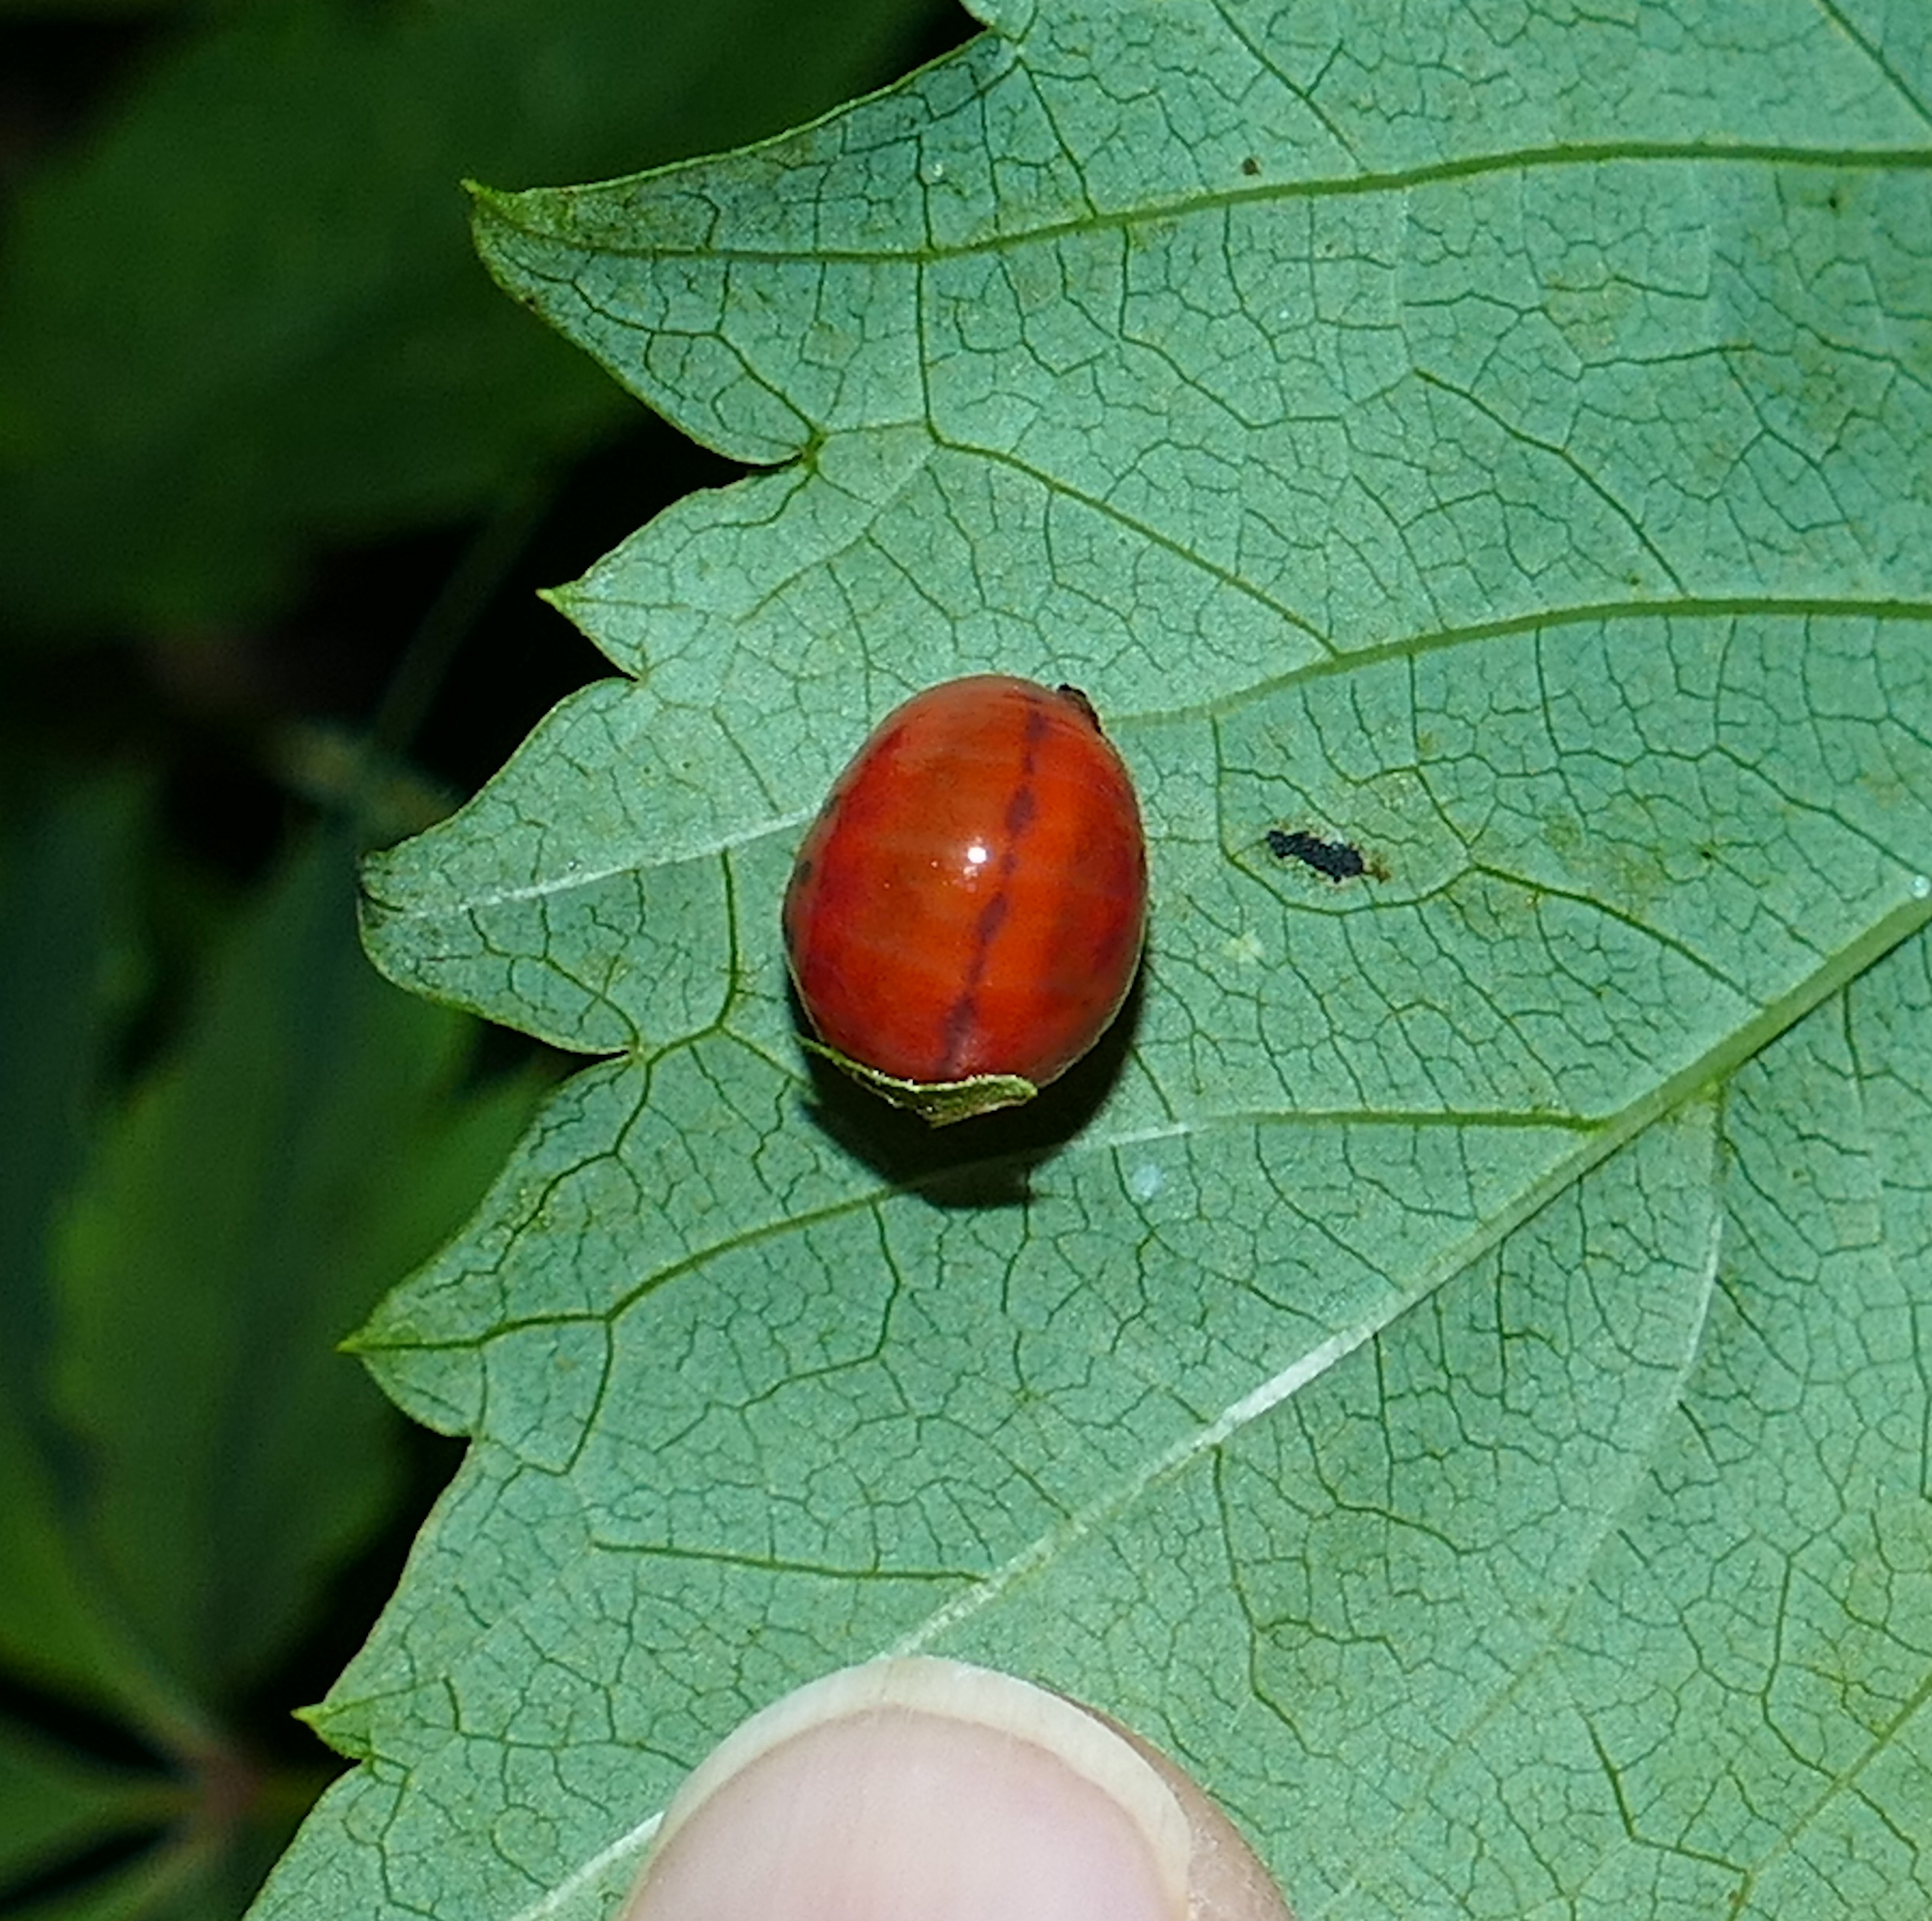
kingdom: Animalia
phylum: Arthropoda
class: Insecta
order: Coleoptera
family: Chrysomelidae
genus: Leptinotarsa
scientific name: Leptinotarsa rubiginosa
